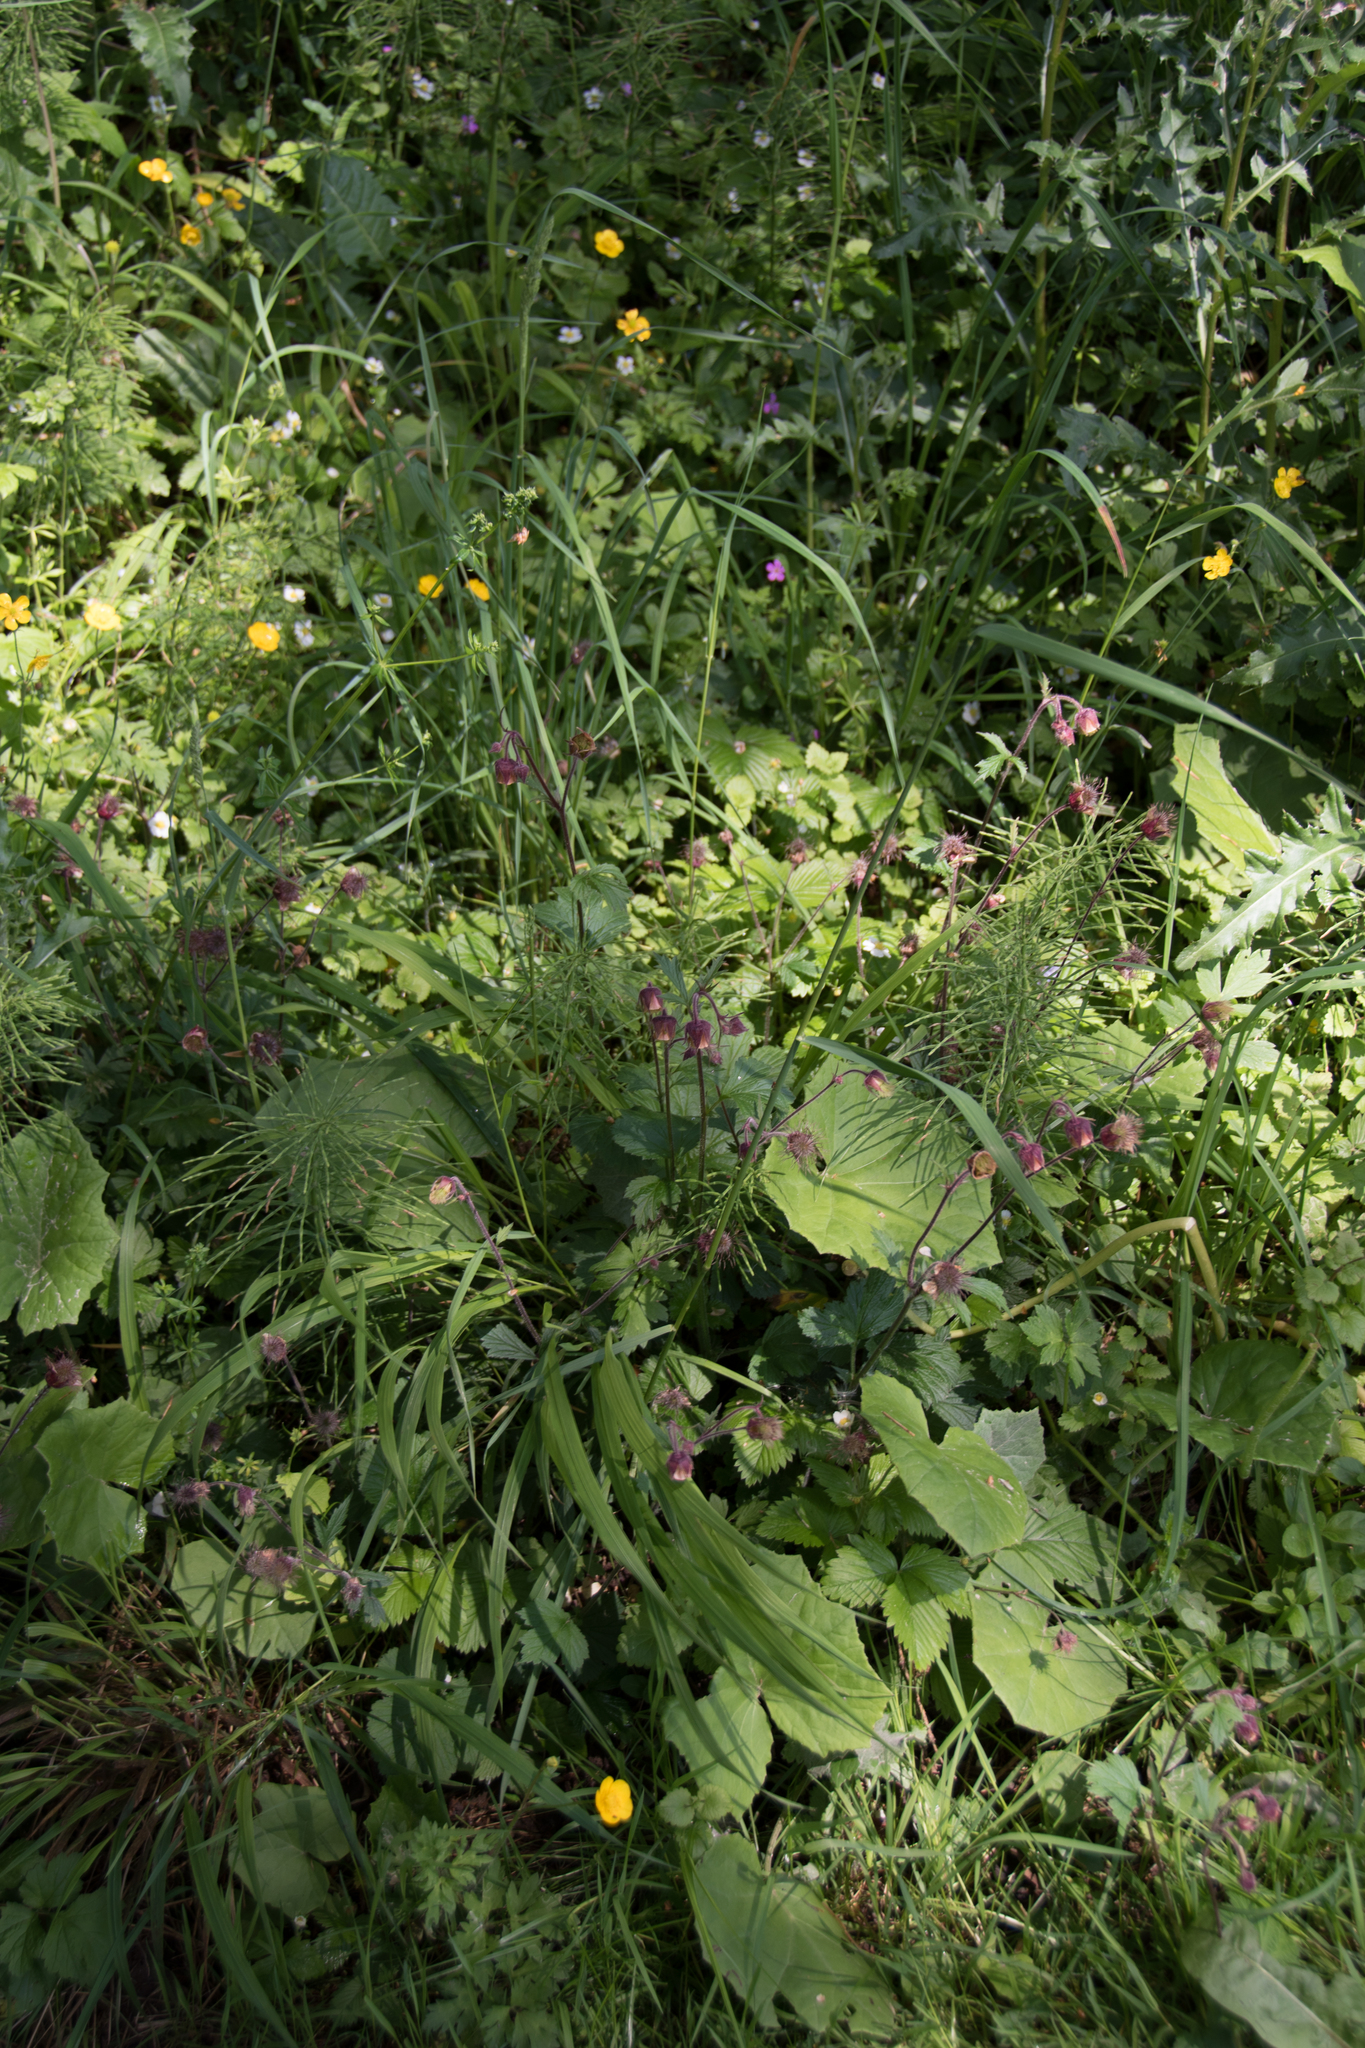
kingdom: Plantae
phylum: Tracheophyta
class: Magnoliopsida
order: Rosales
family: Rosaceae
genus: Geum
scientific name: Geum rivale
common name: Water avens
